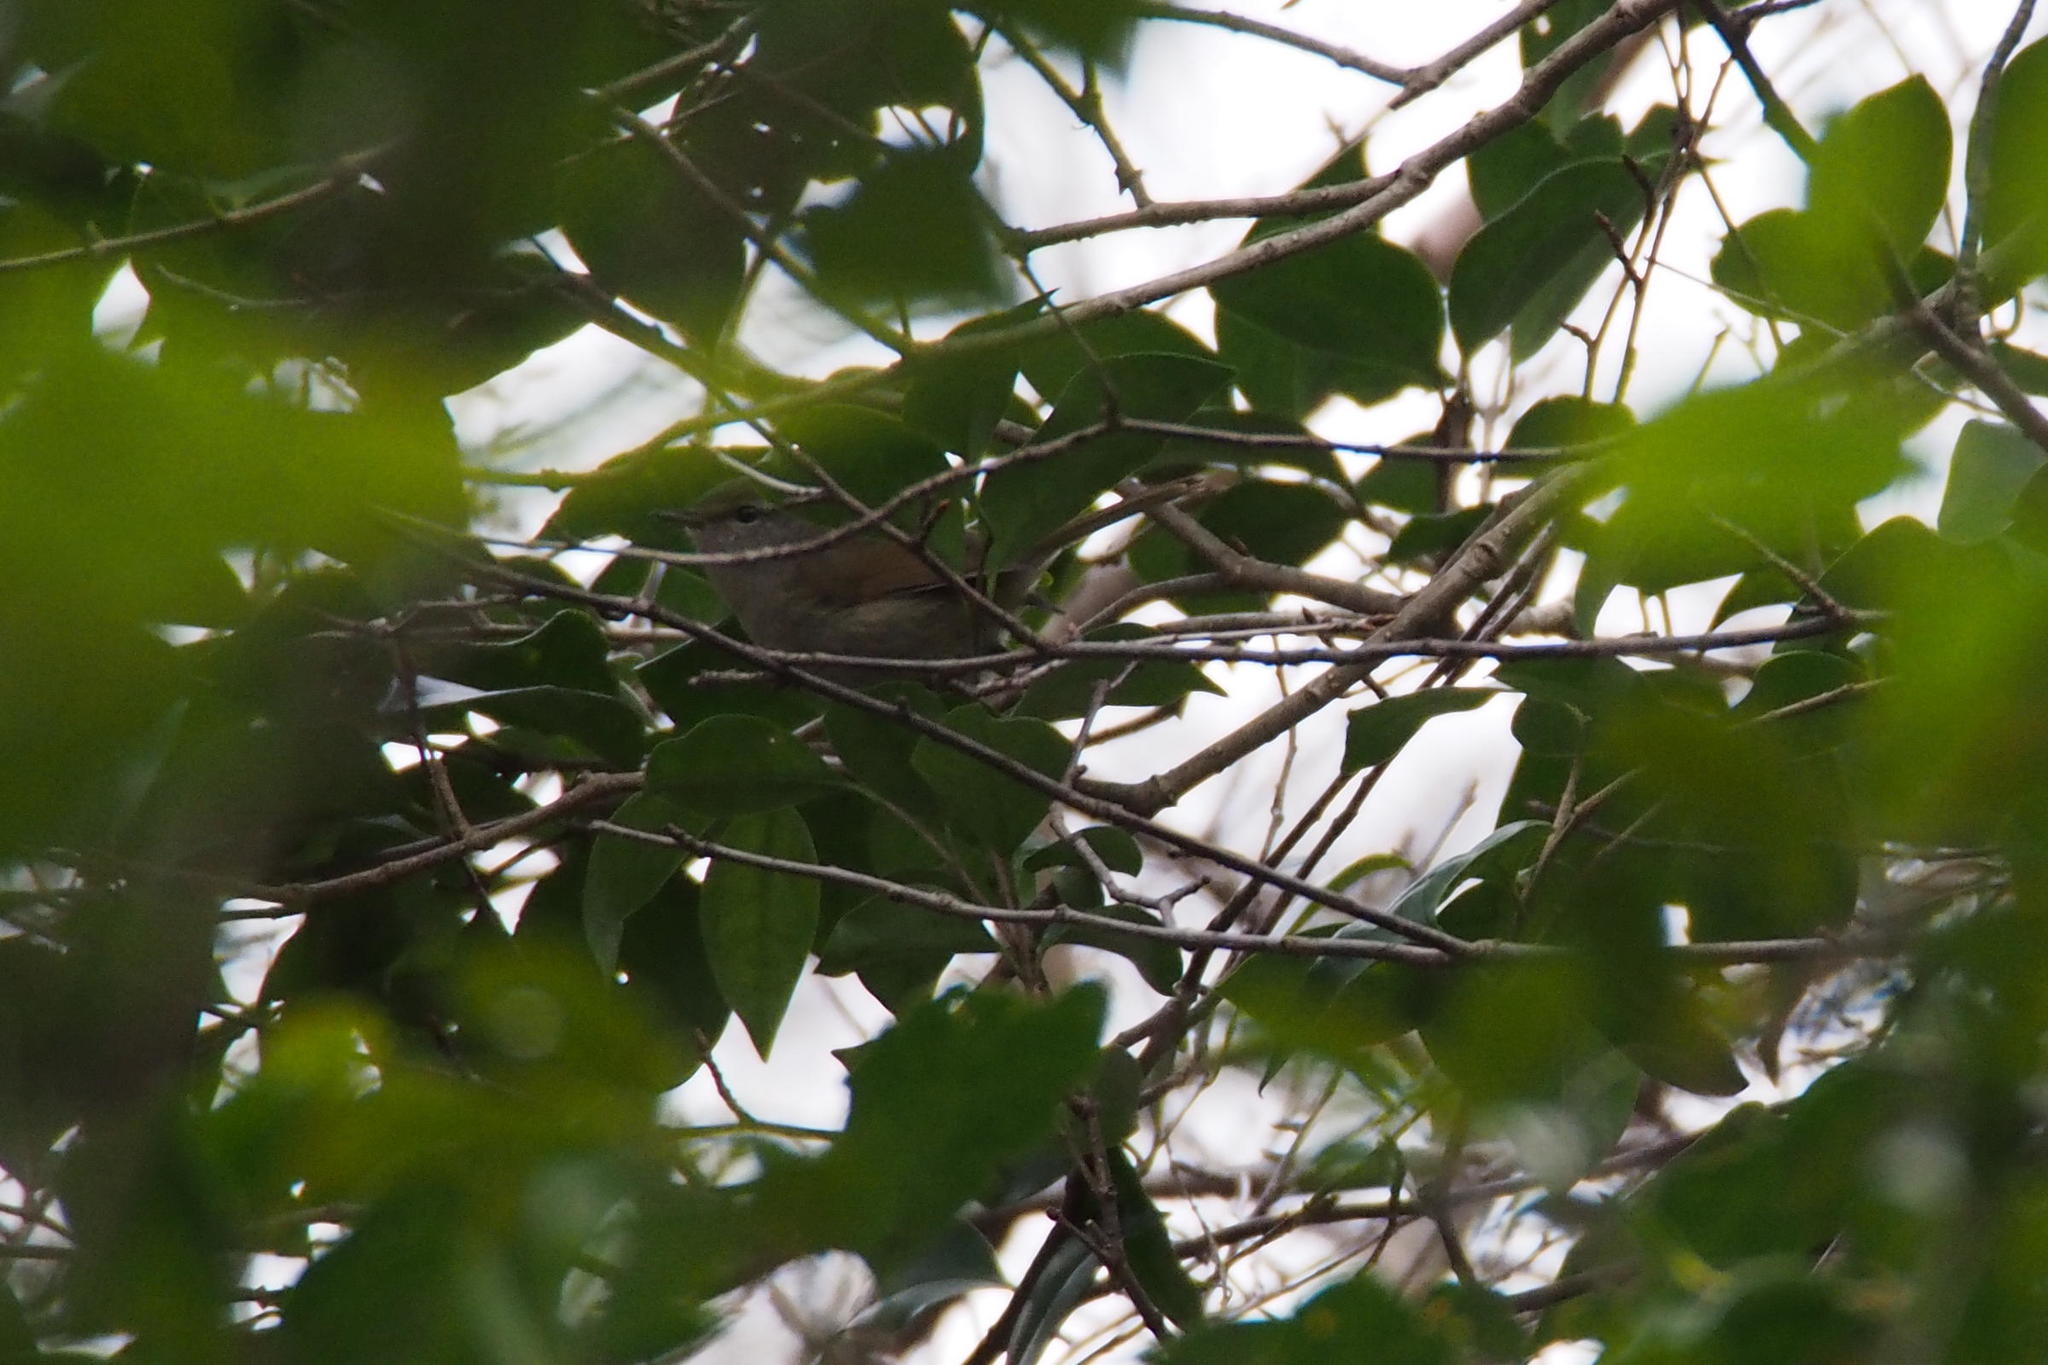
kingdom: Animalia
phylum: Chordata
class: Aves
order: Passeriformes
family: Cettiidae
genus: Horornis
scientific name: Horornis diphone
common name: Japanese bush warbler
